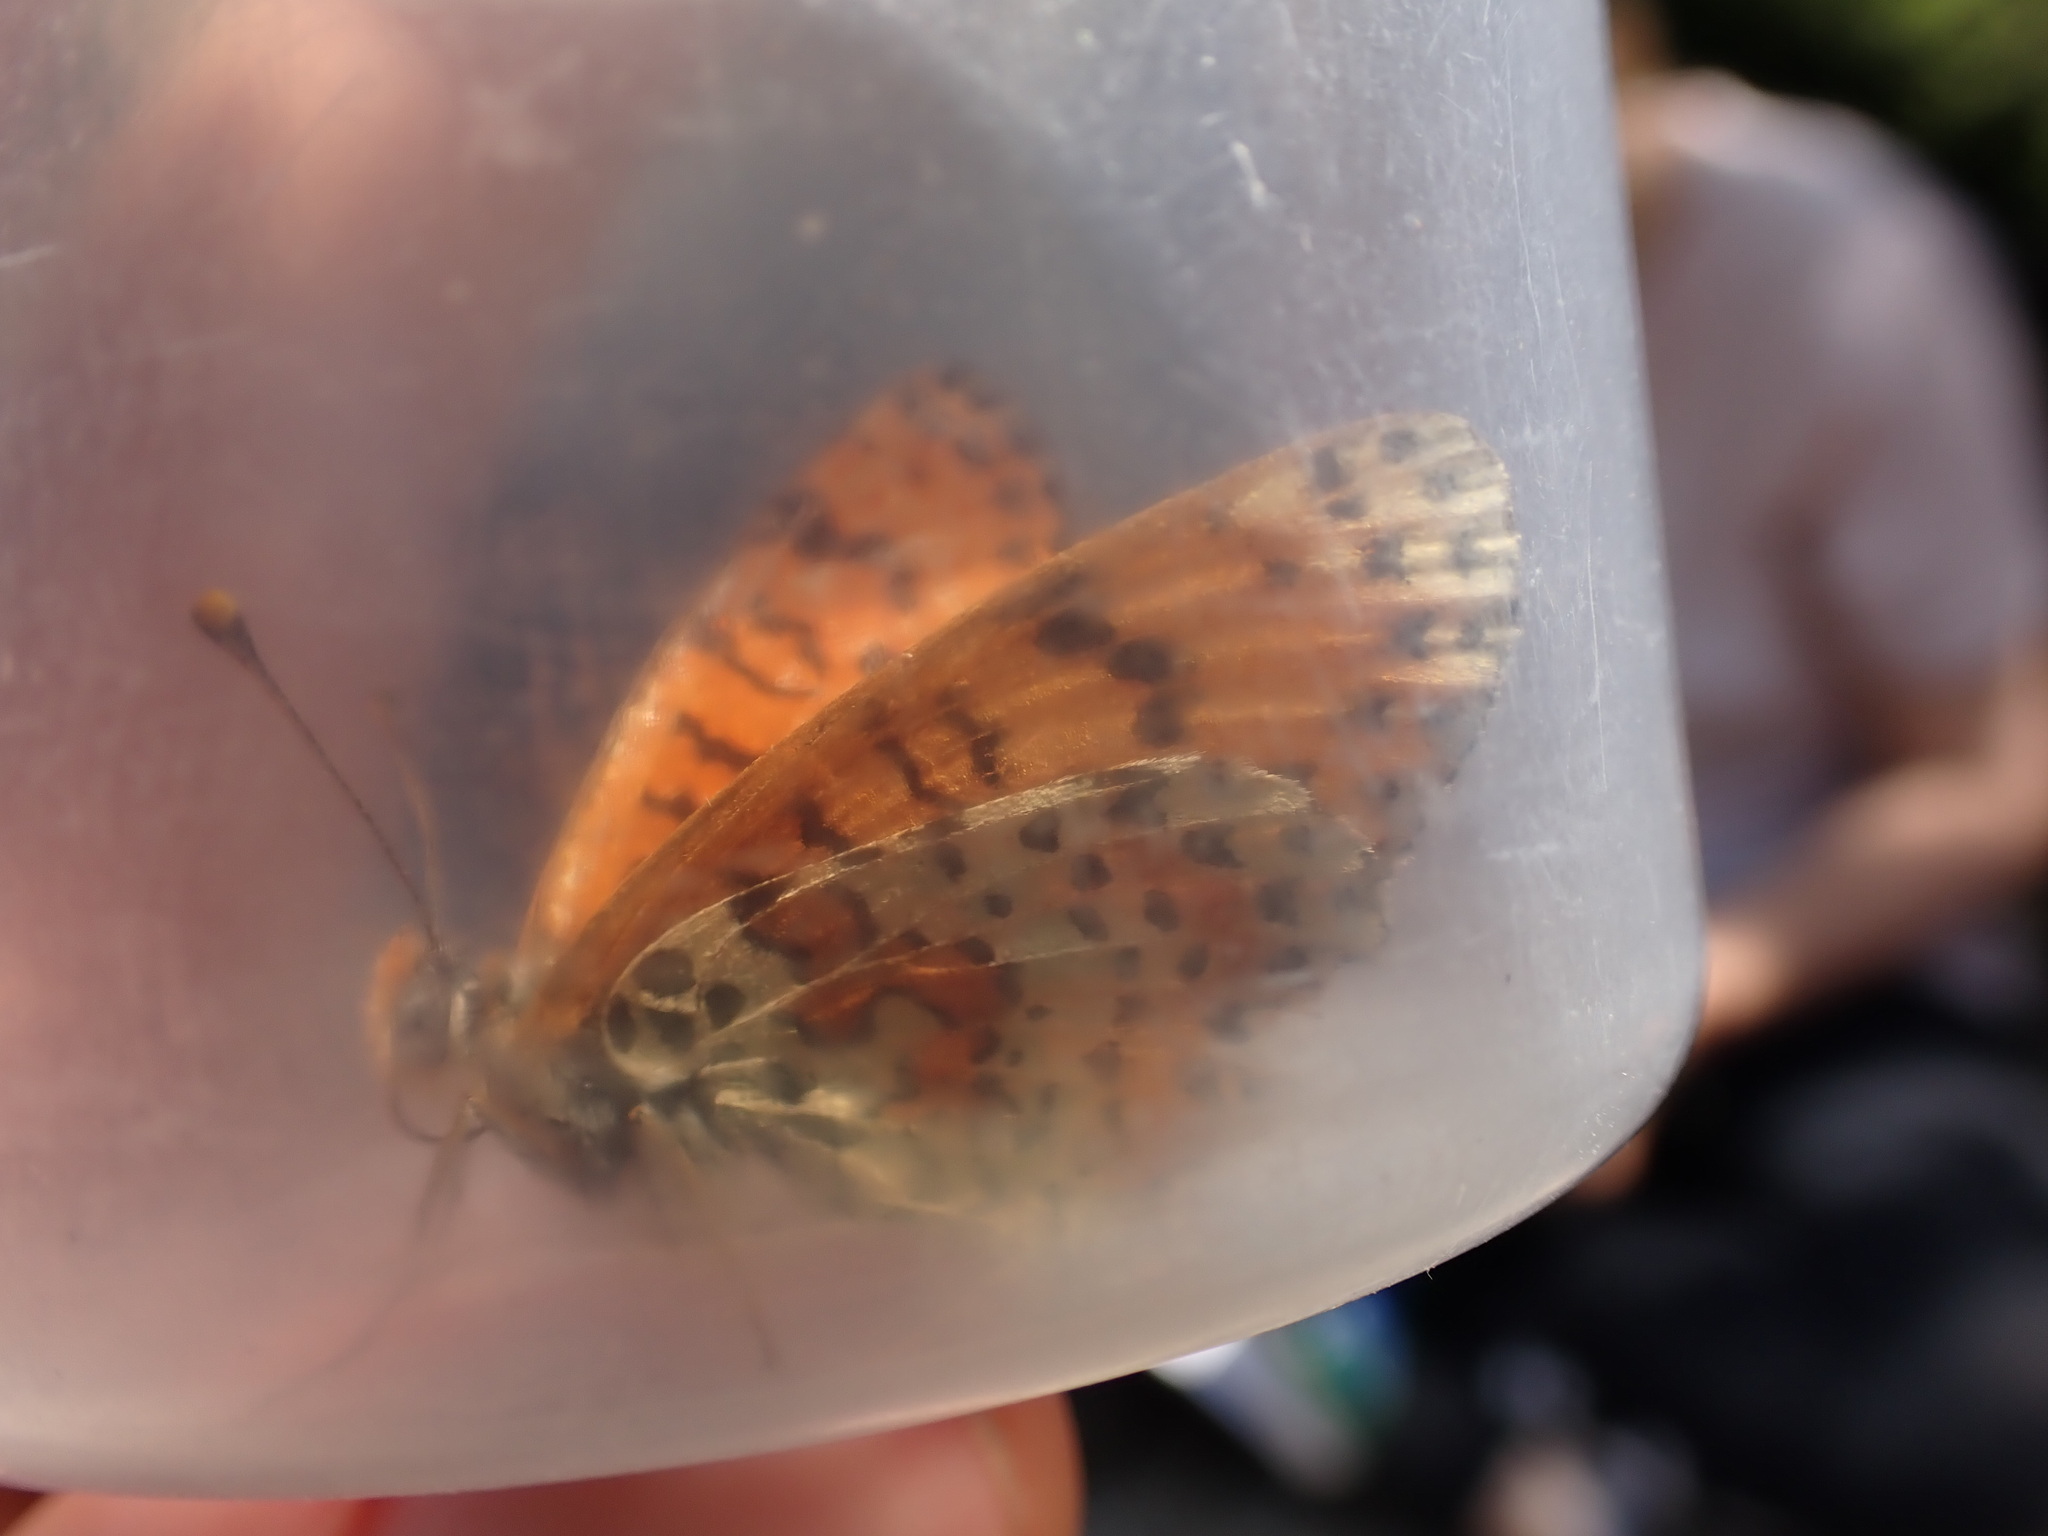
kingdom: Animalia
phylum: Arthropoda
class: Insecta
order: Lepidoptera
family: Nymphalidae
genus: Melitaea
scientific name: Melitaea didyma
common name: Spotted fritillary
